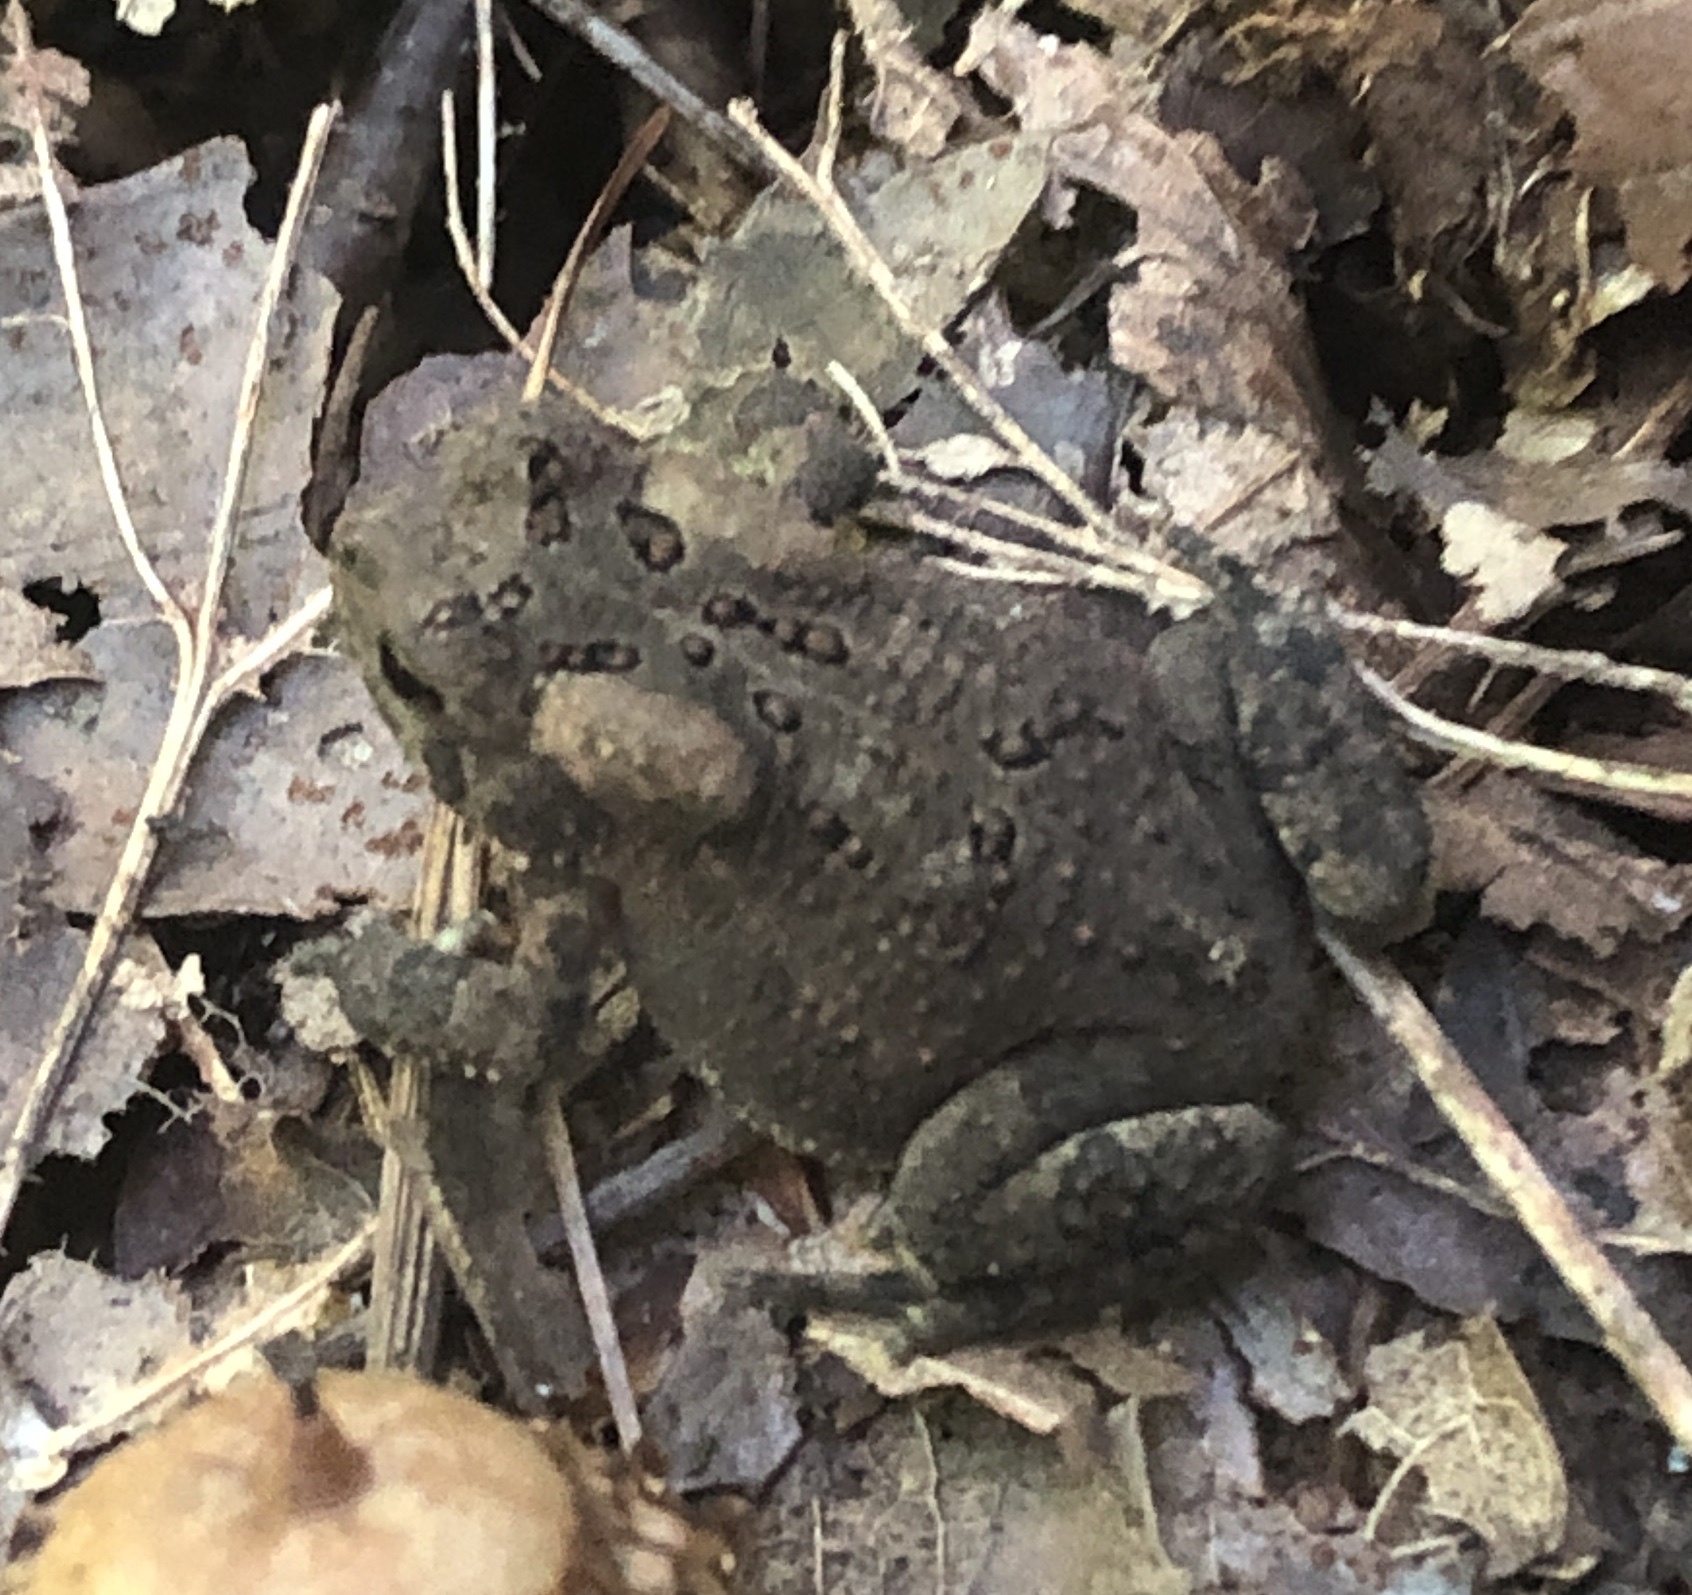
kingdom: Animalia
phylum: Chordata
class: Amphibia
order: Anura
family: Bufonidae
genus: Anaxyrus
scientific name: Anaxyrus americanus
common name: American toad
